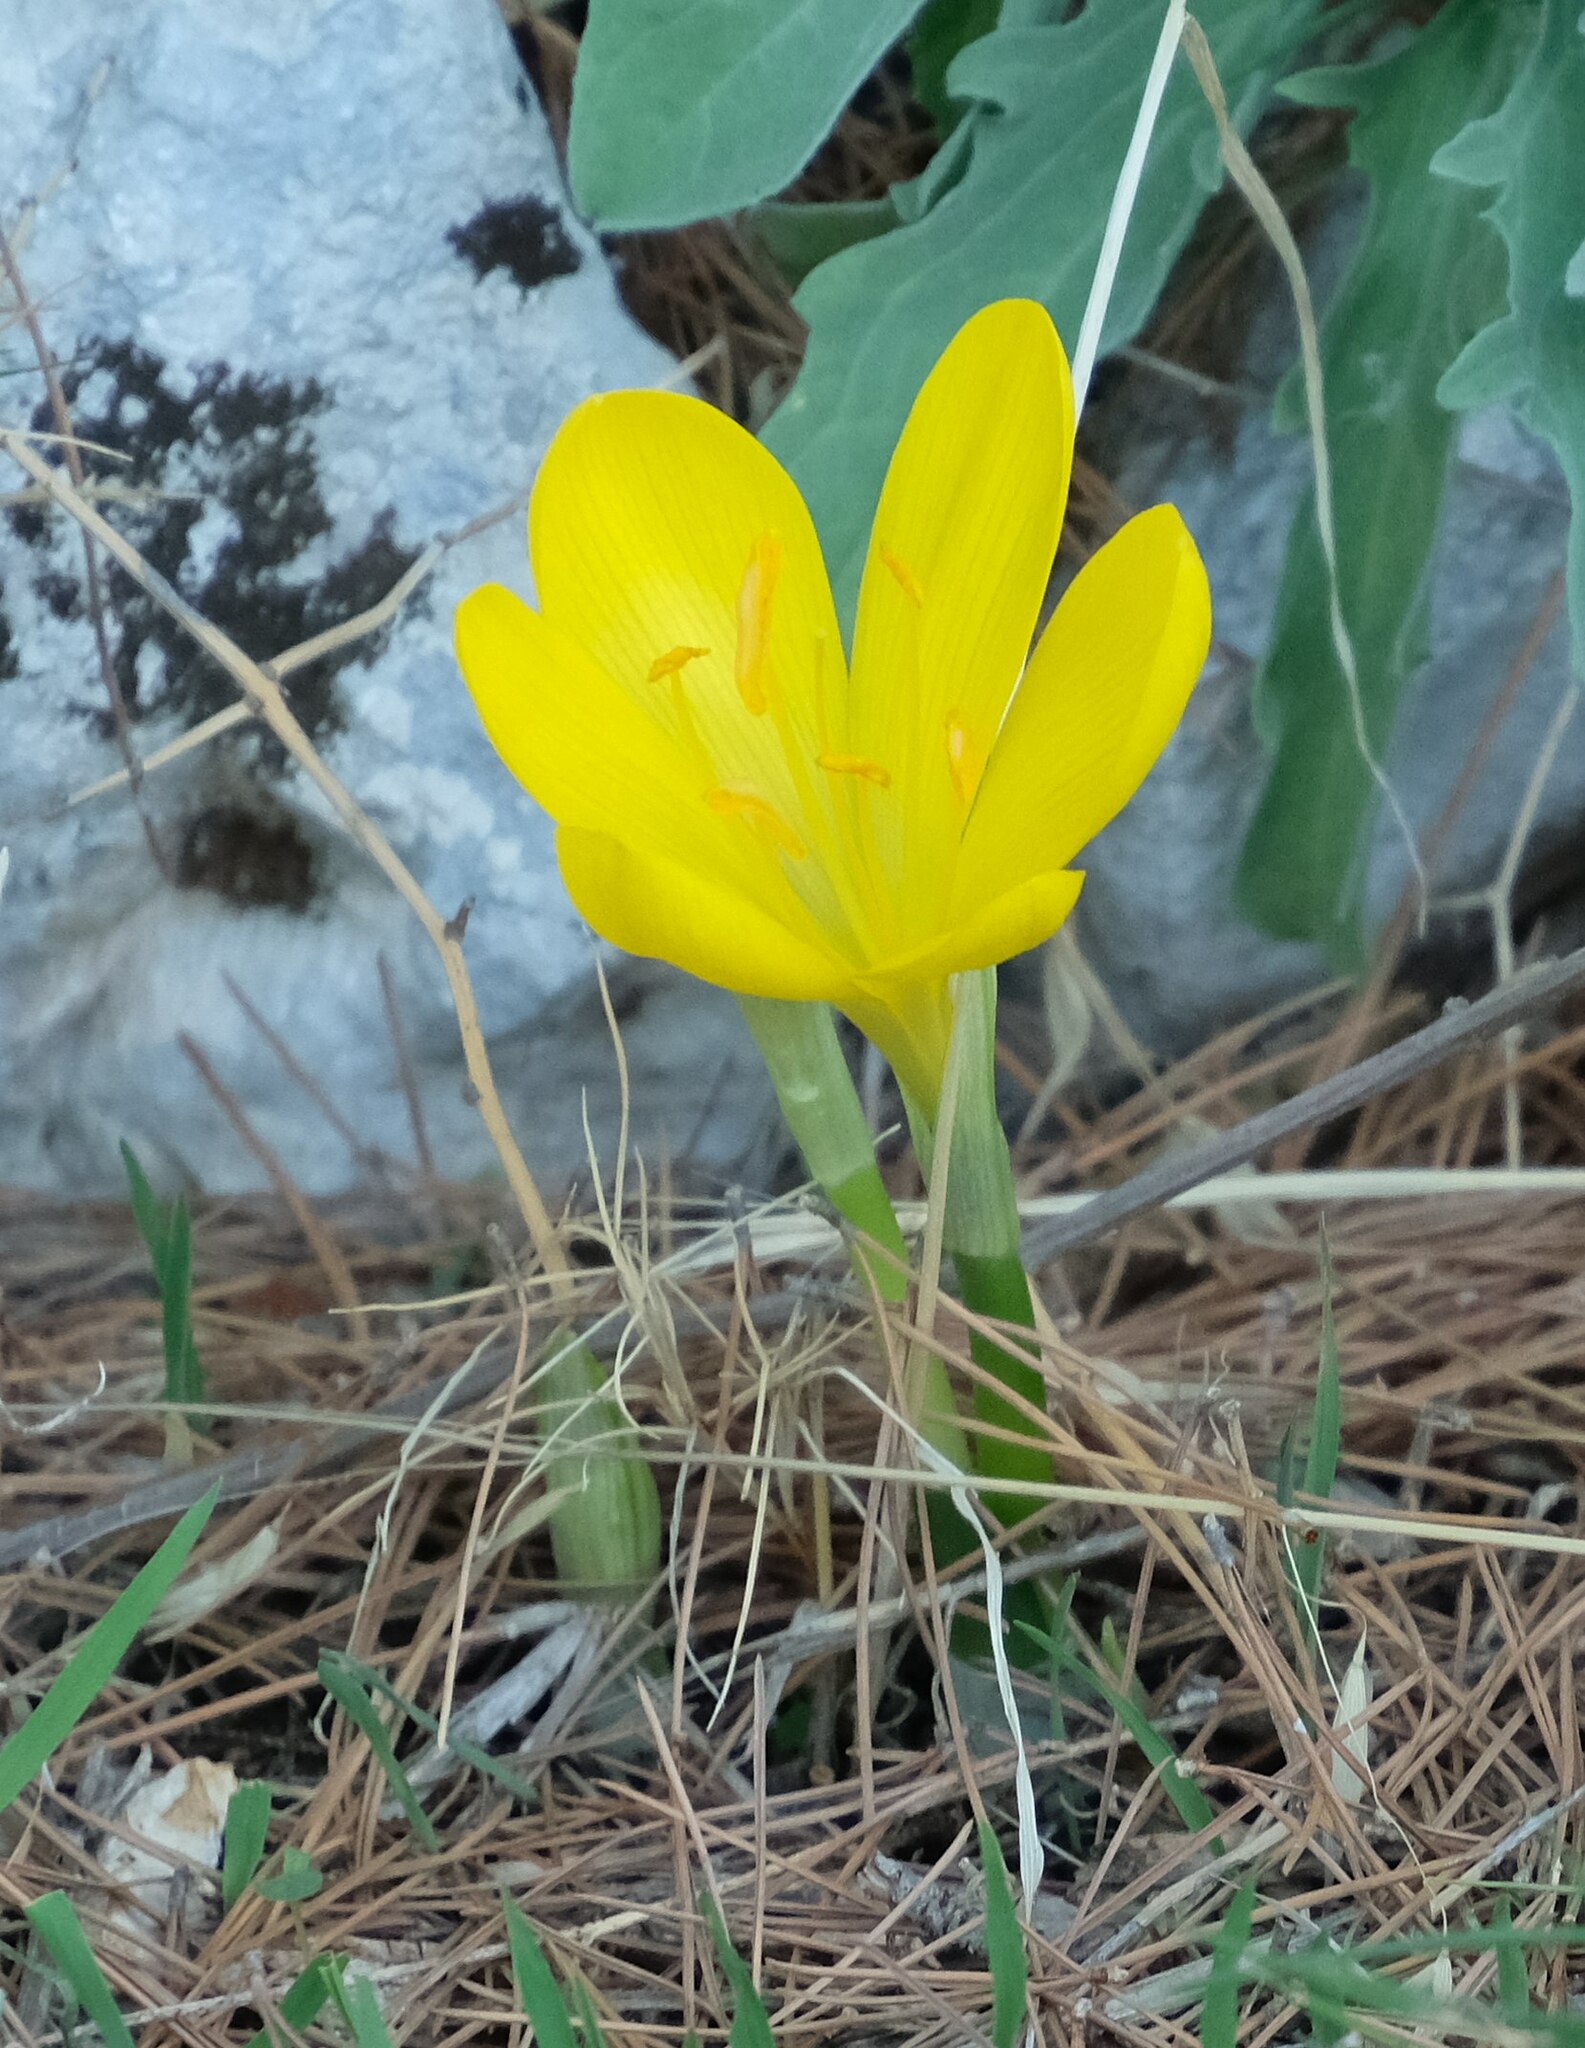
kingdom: Plantae
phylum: Tracheophyta
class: Liliopsida
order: Asparagales
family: Amaryllidaceae
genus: Sternbergia
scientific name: Sternbergia lutea
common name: Winter daffodil
